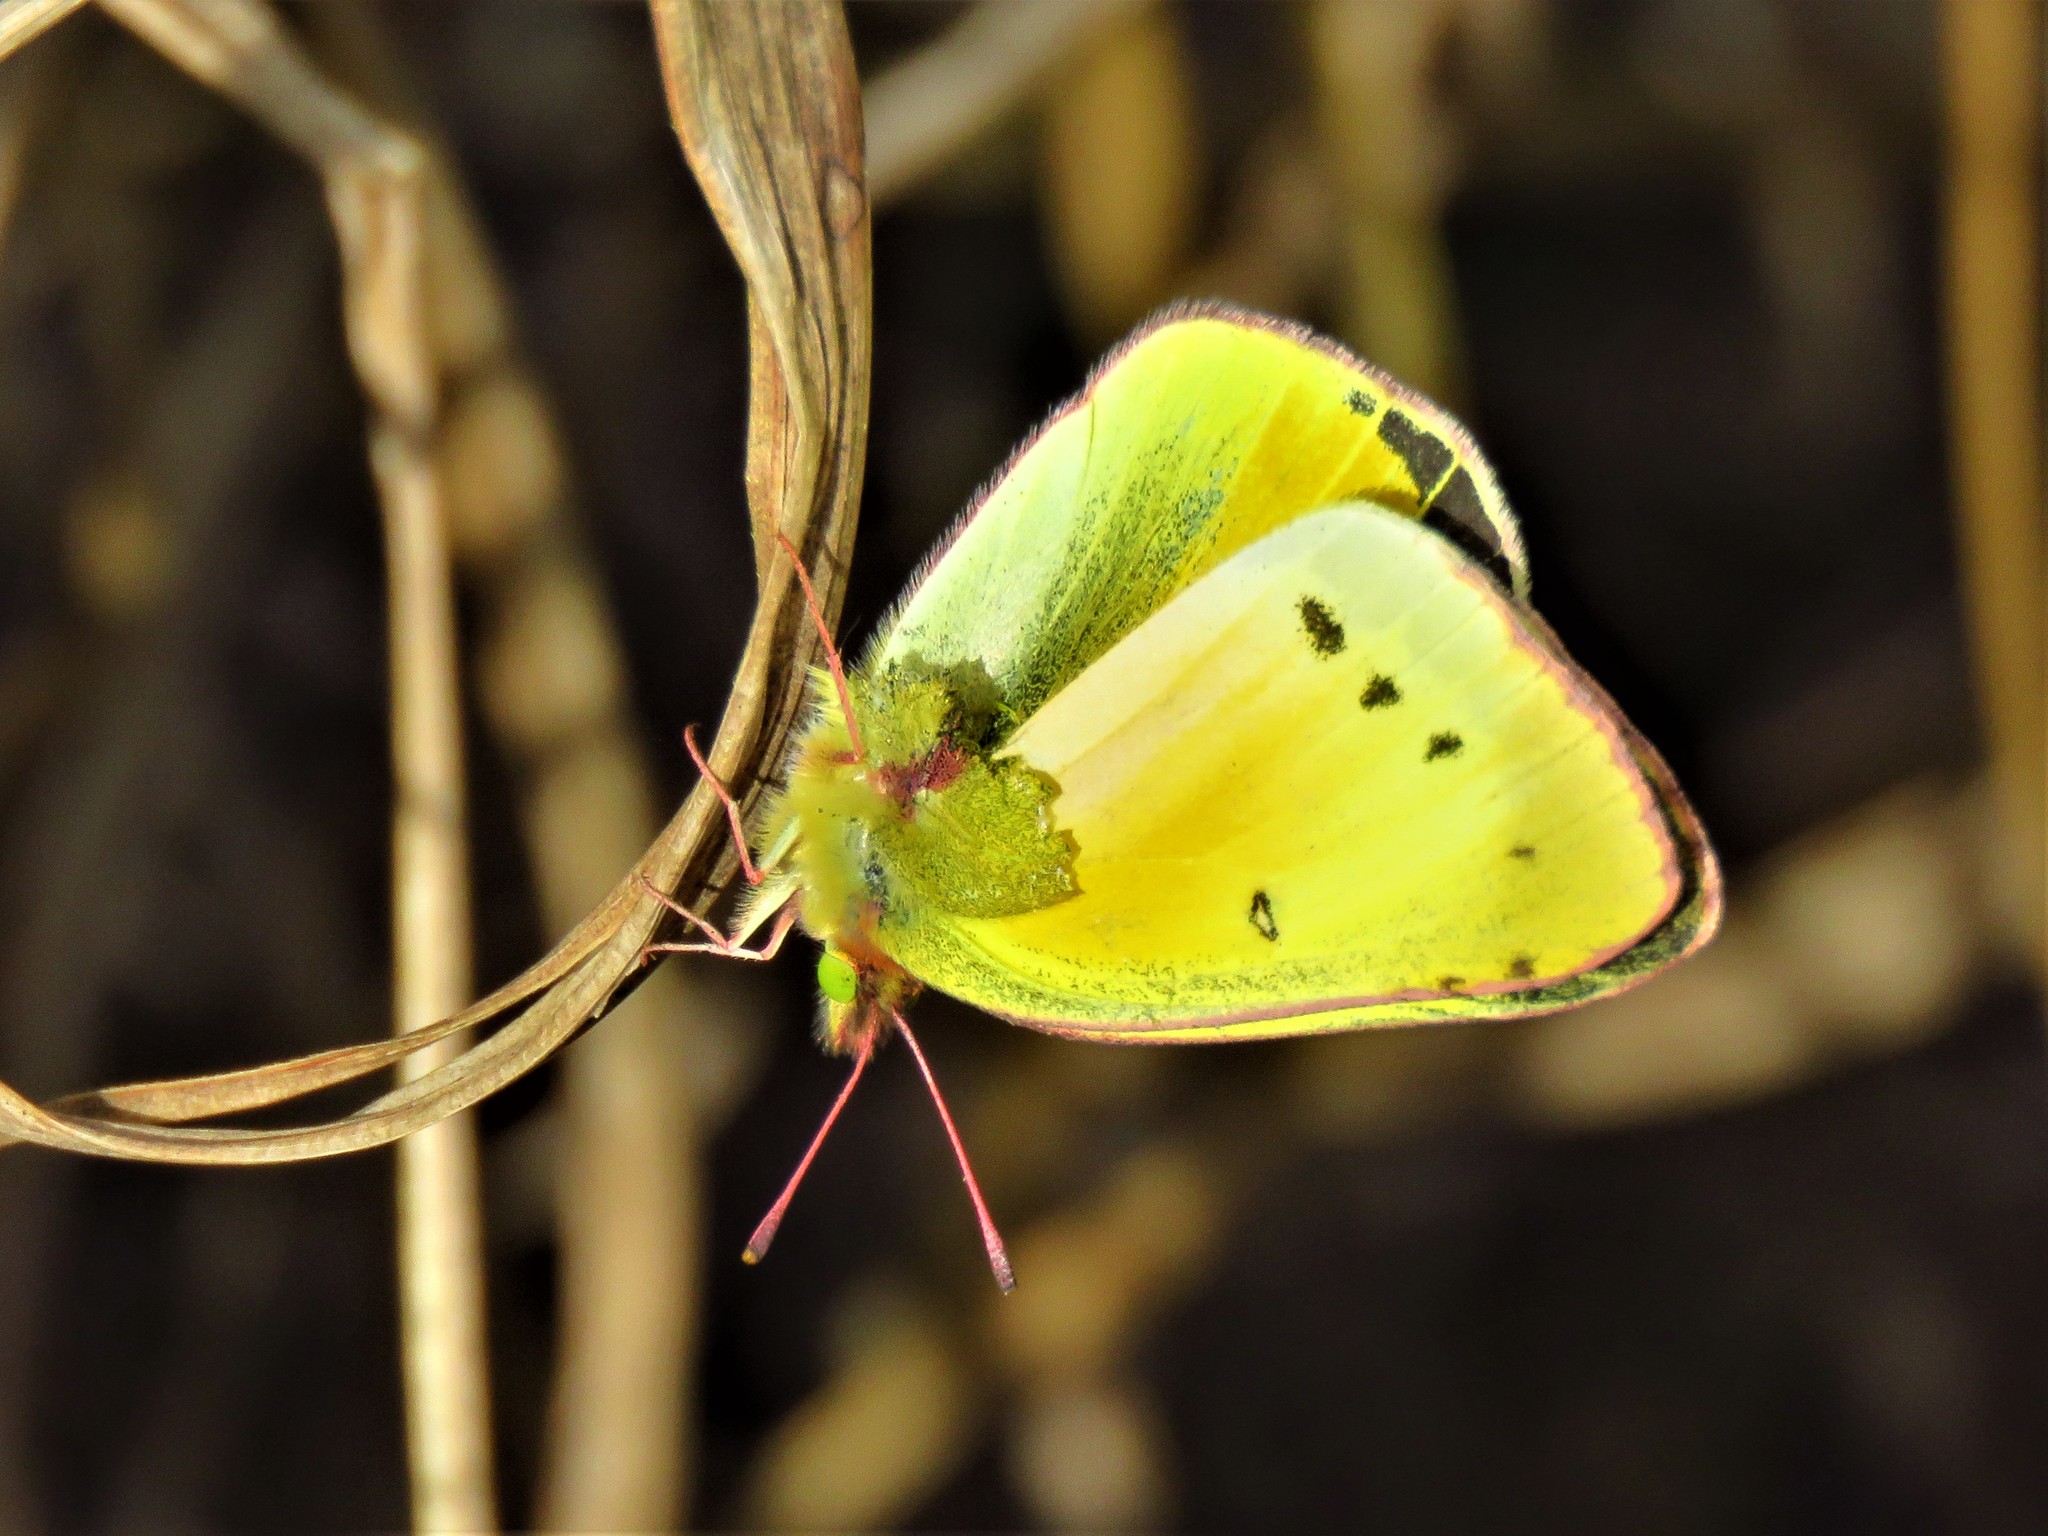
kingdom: Animalia
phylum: Arthropoda
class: Insecta
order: Lepidoptera
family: Pieridae
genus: Colias
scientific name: Colias eurytheme
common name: Alfalfa butterfly
